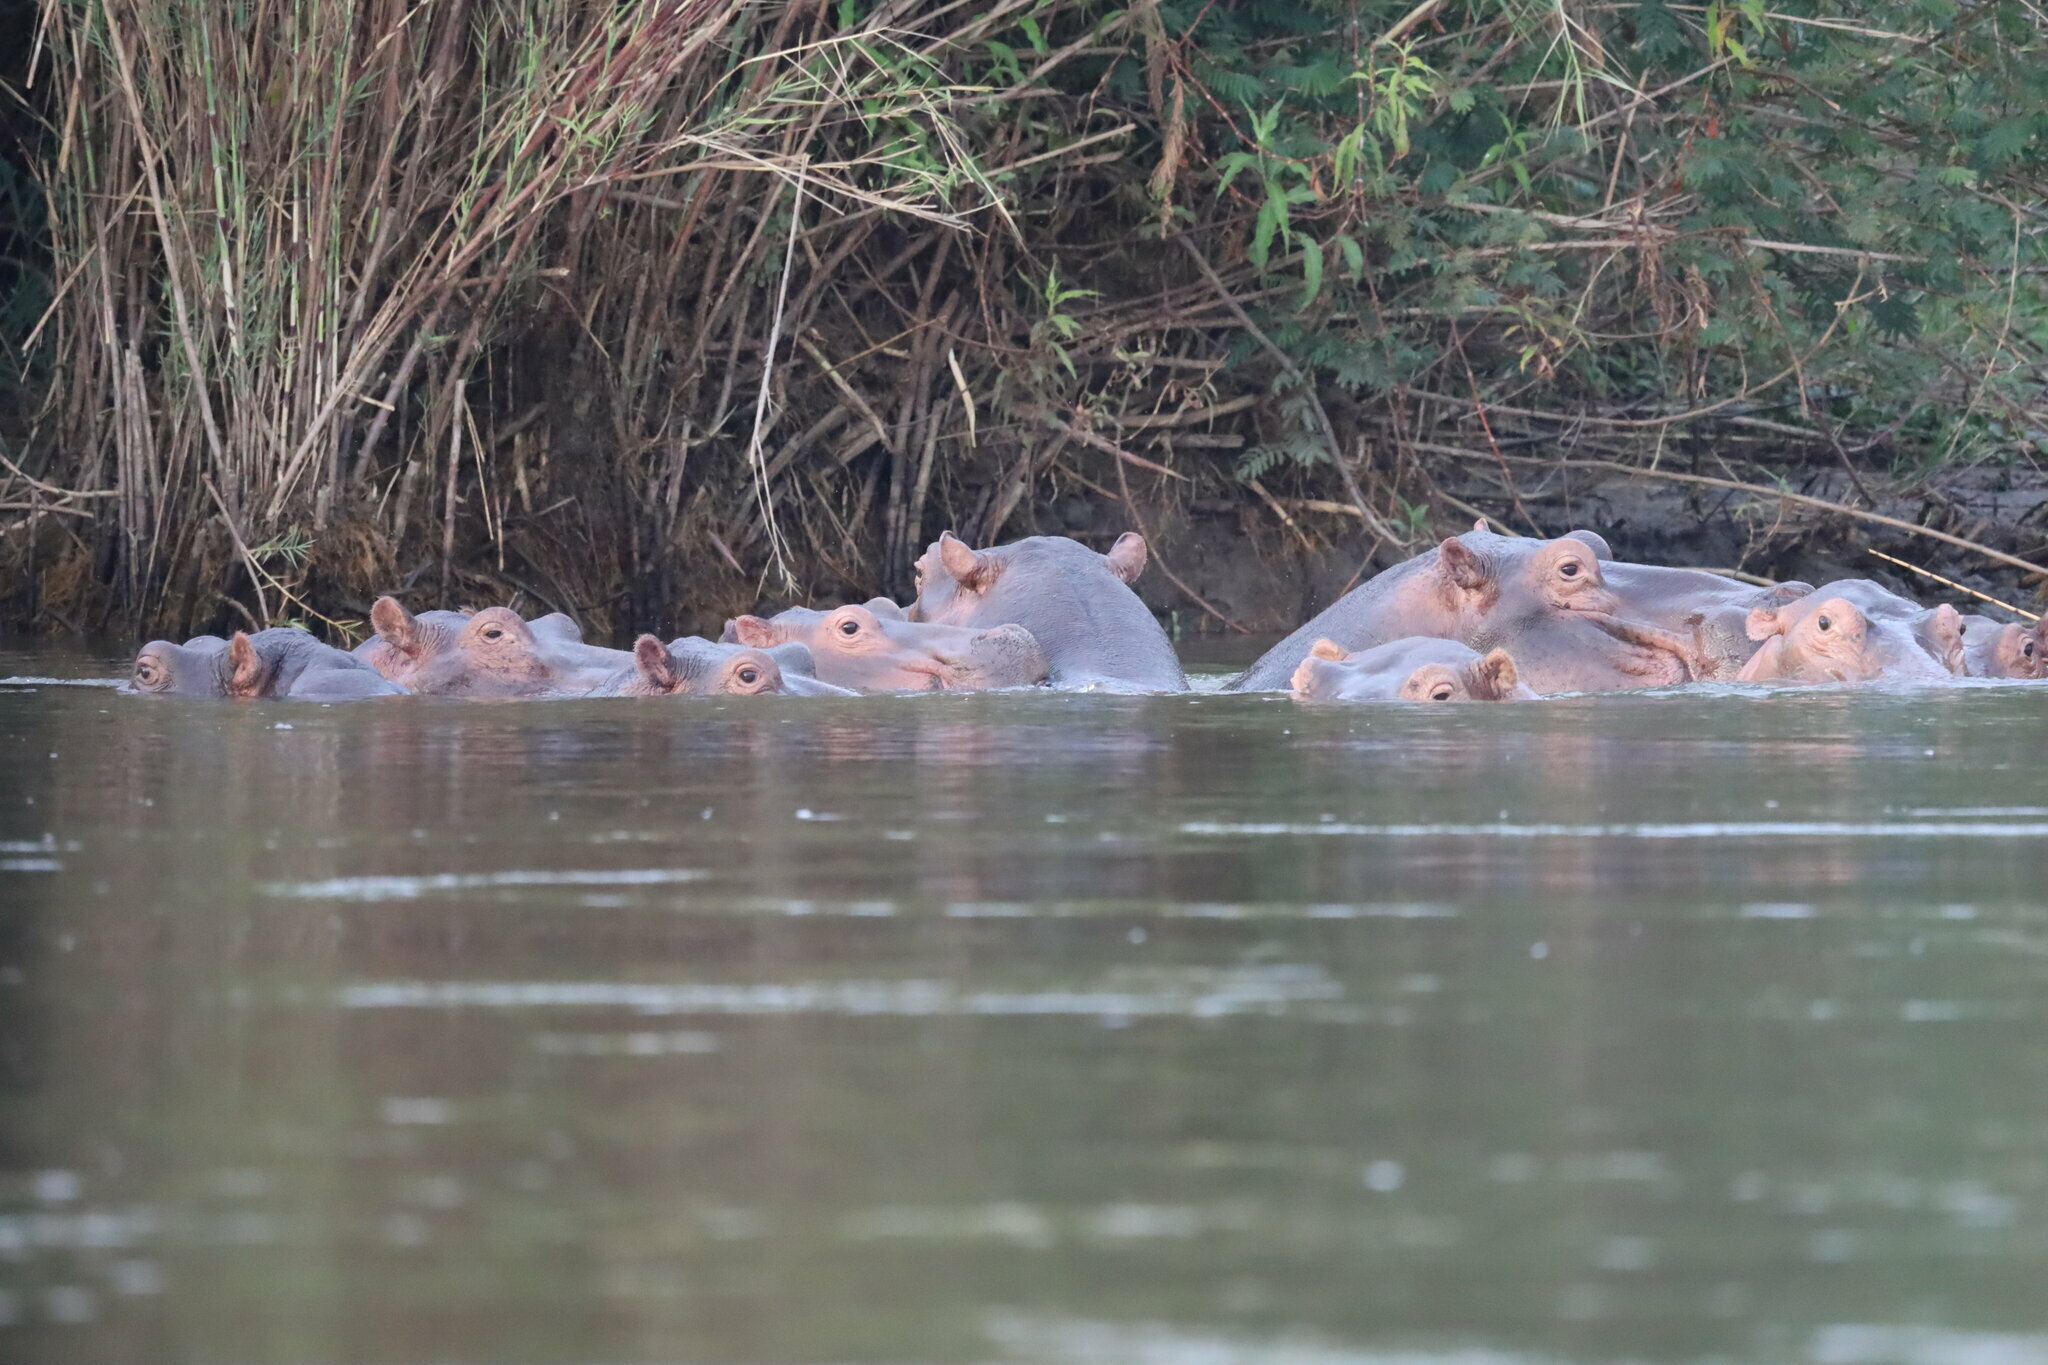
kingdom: Animalia
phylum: Chordata
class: Mammalia
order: Artiodactyla
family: Hippopotamidae
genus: Hippopotamus
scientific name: Hippopotamus amphibius
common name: Common hippopotamus
